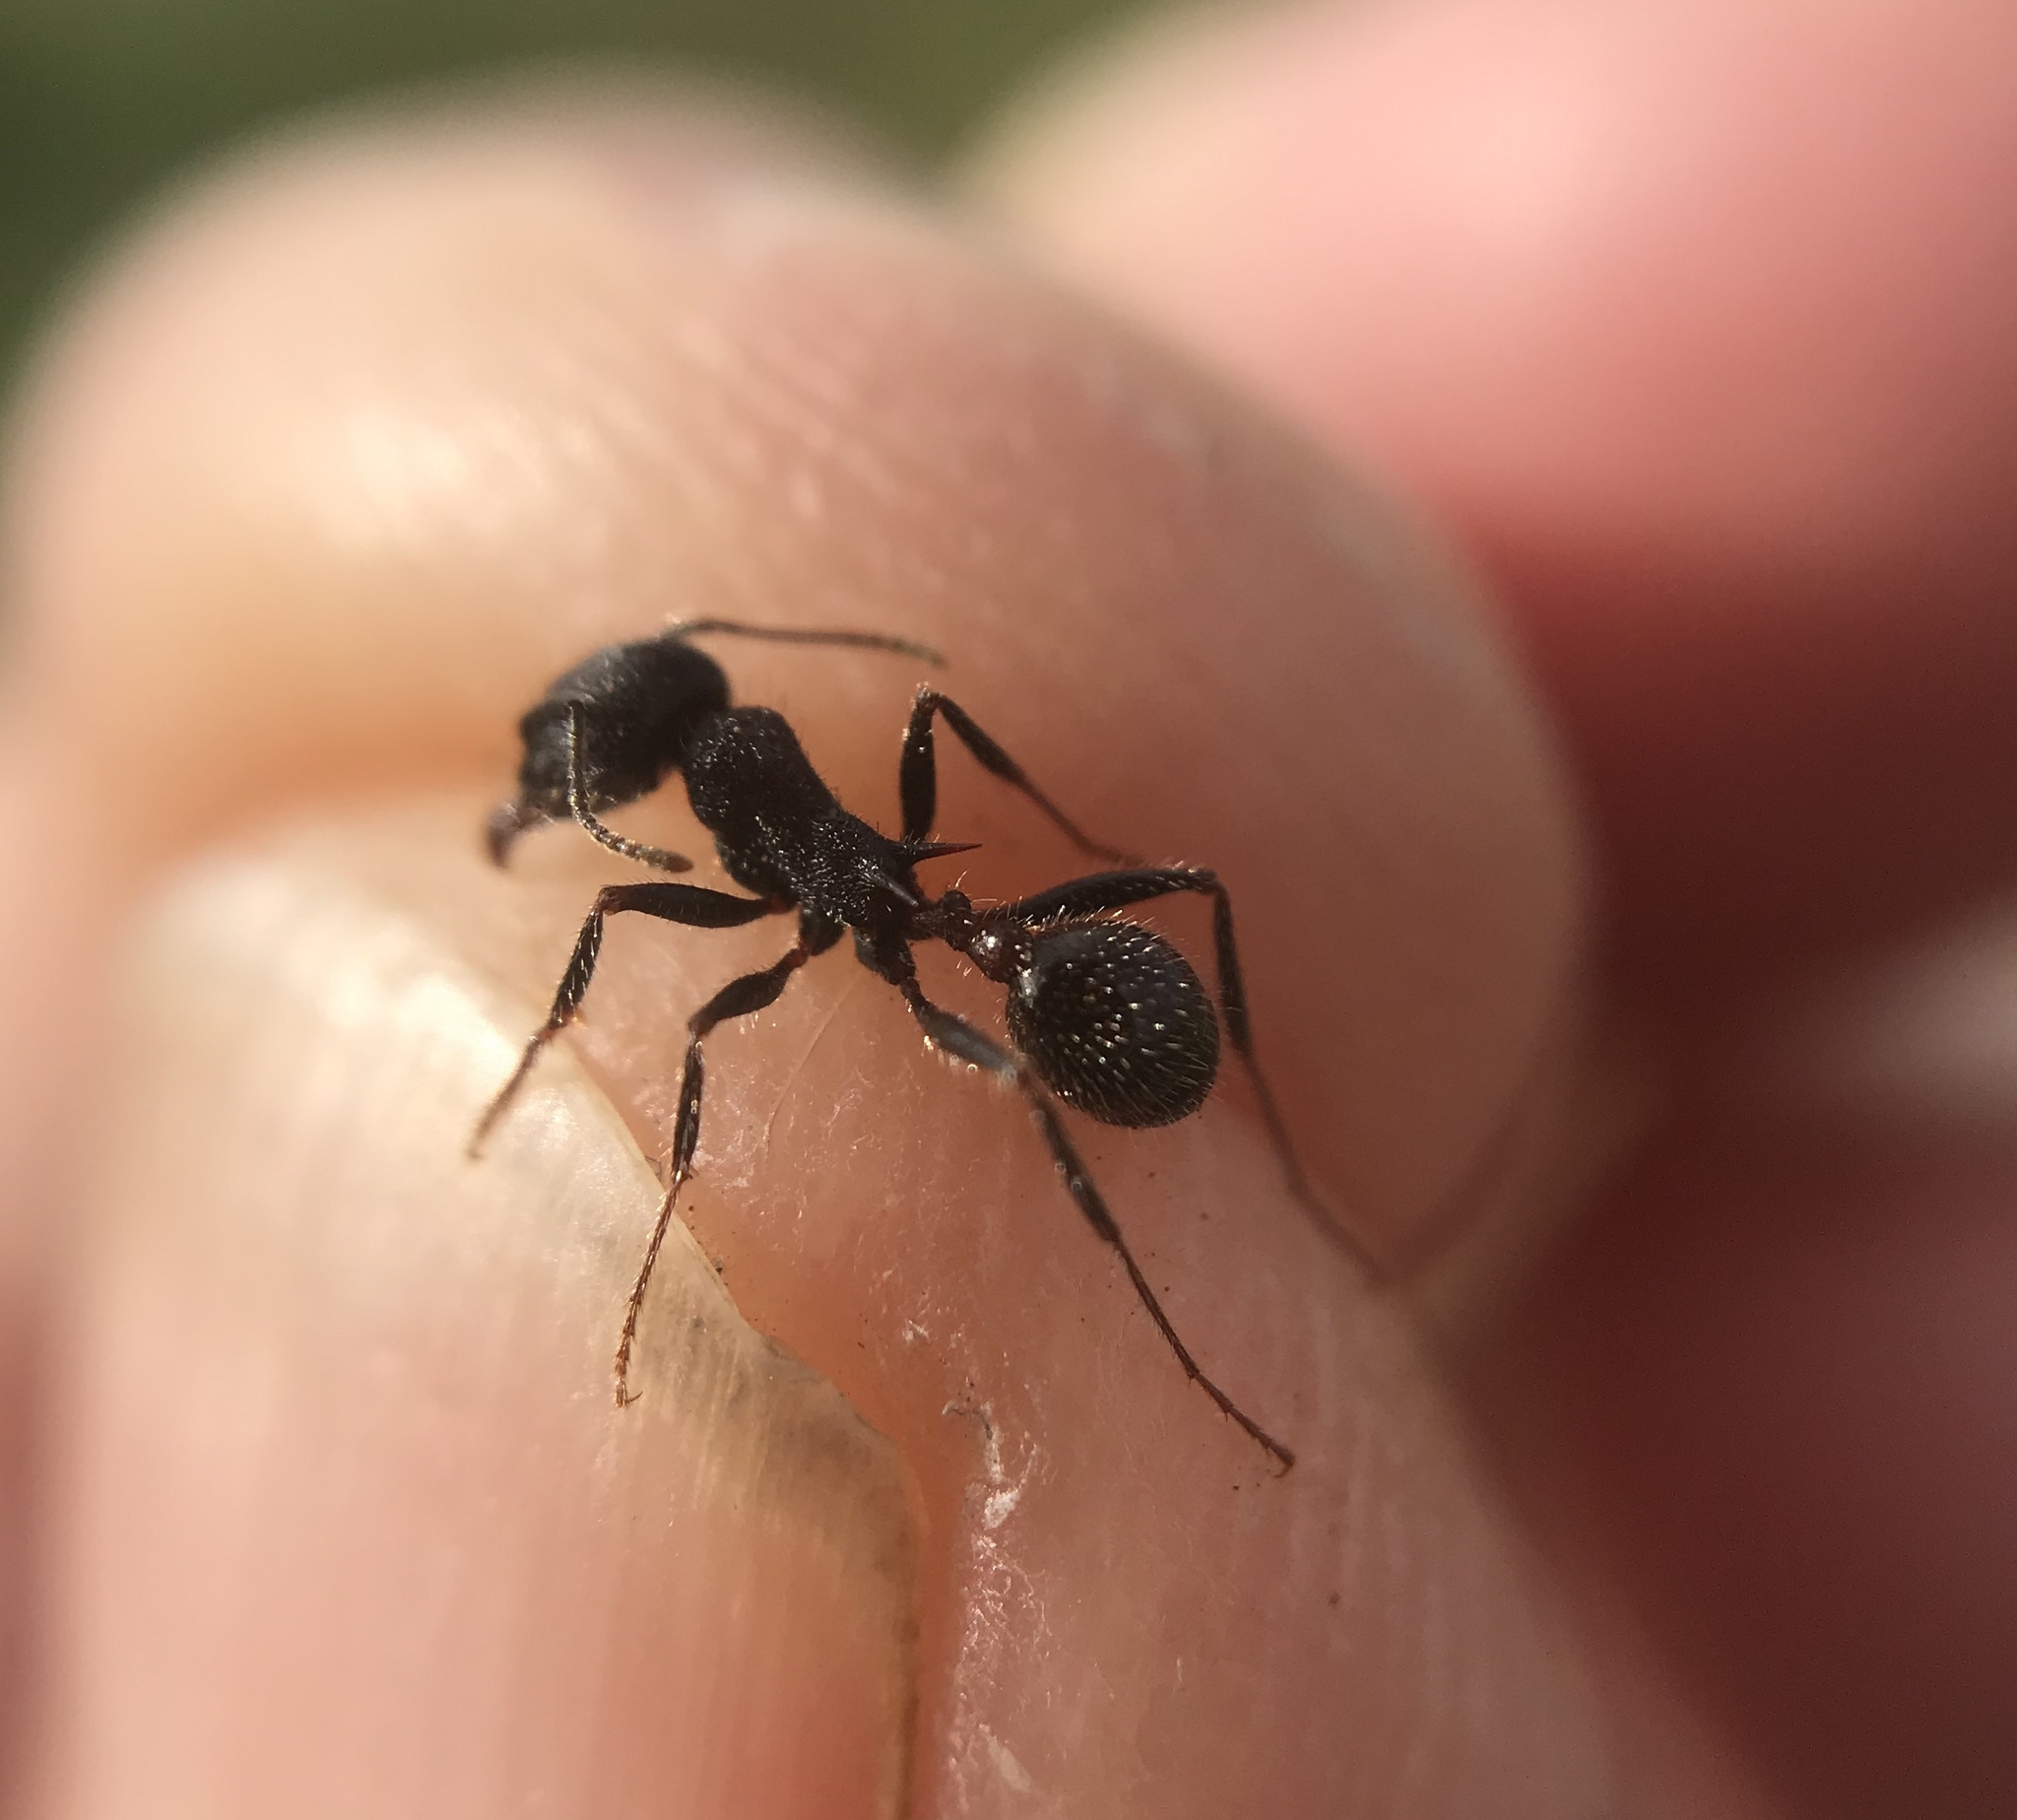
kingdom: Animalia
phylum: Arthropoda
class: Insecta
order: Hymenoptera
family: Formicidae
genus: Veromessor
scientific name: Veromessor andrei
